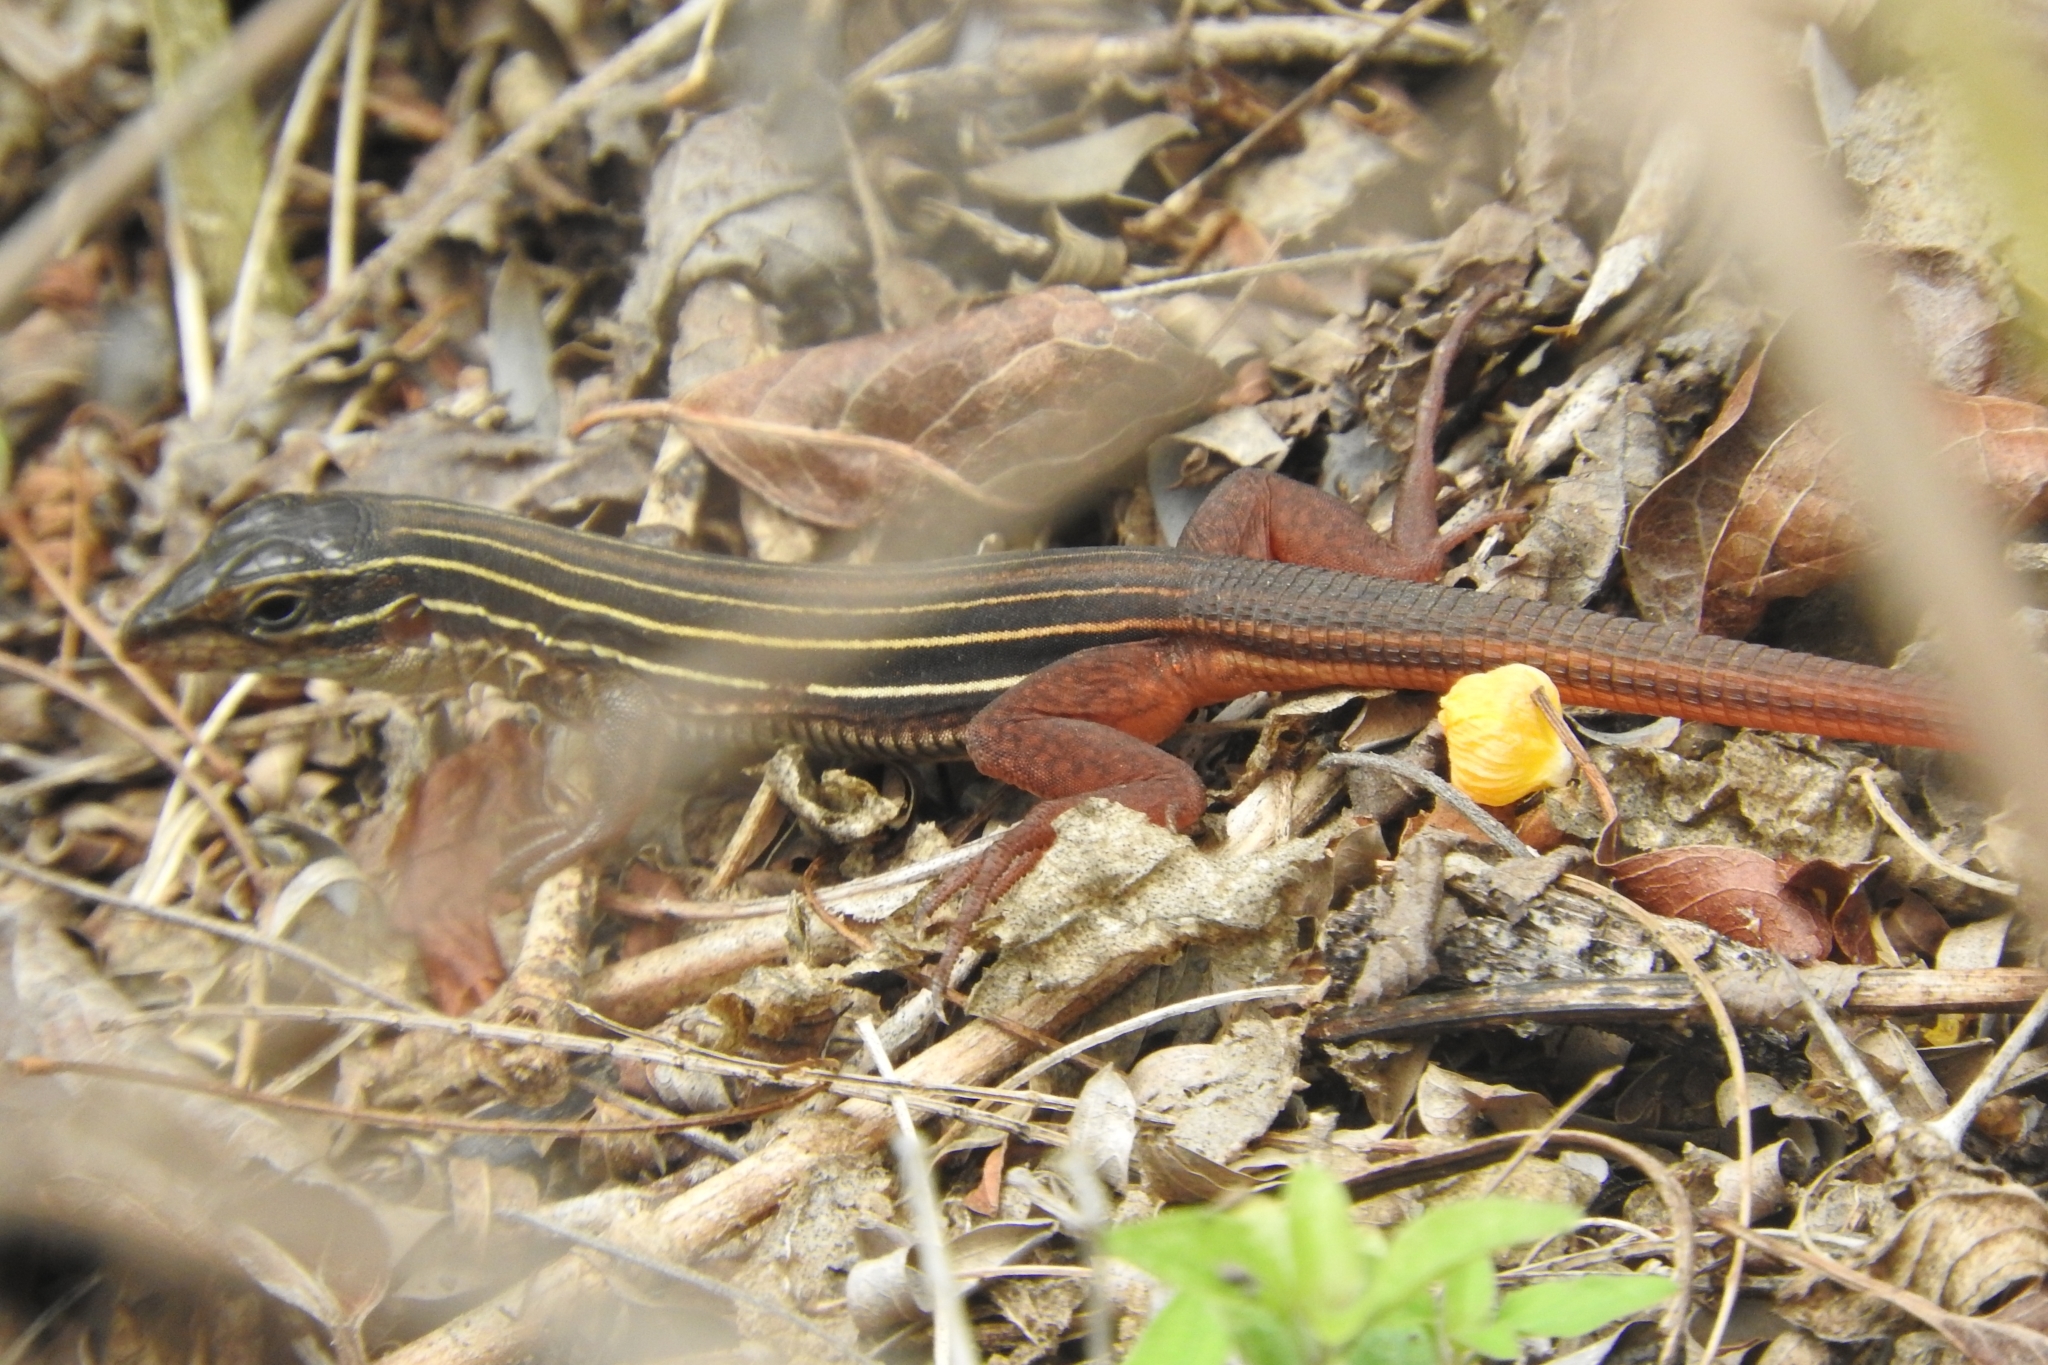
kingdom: Animalia
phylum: Chordata
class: Squamata
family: Teiidae
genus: Aspidoscelis
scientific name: Aspidoscelis angusticeps
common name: Yucatan whiptail
